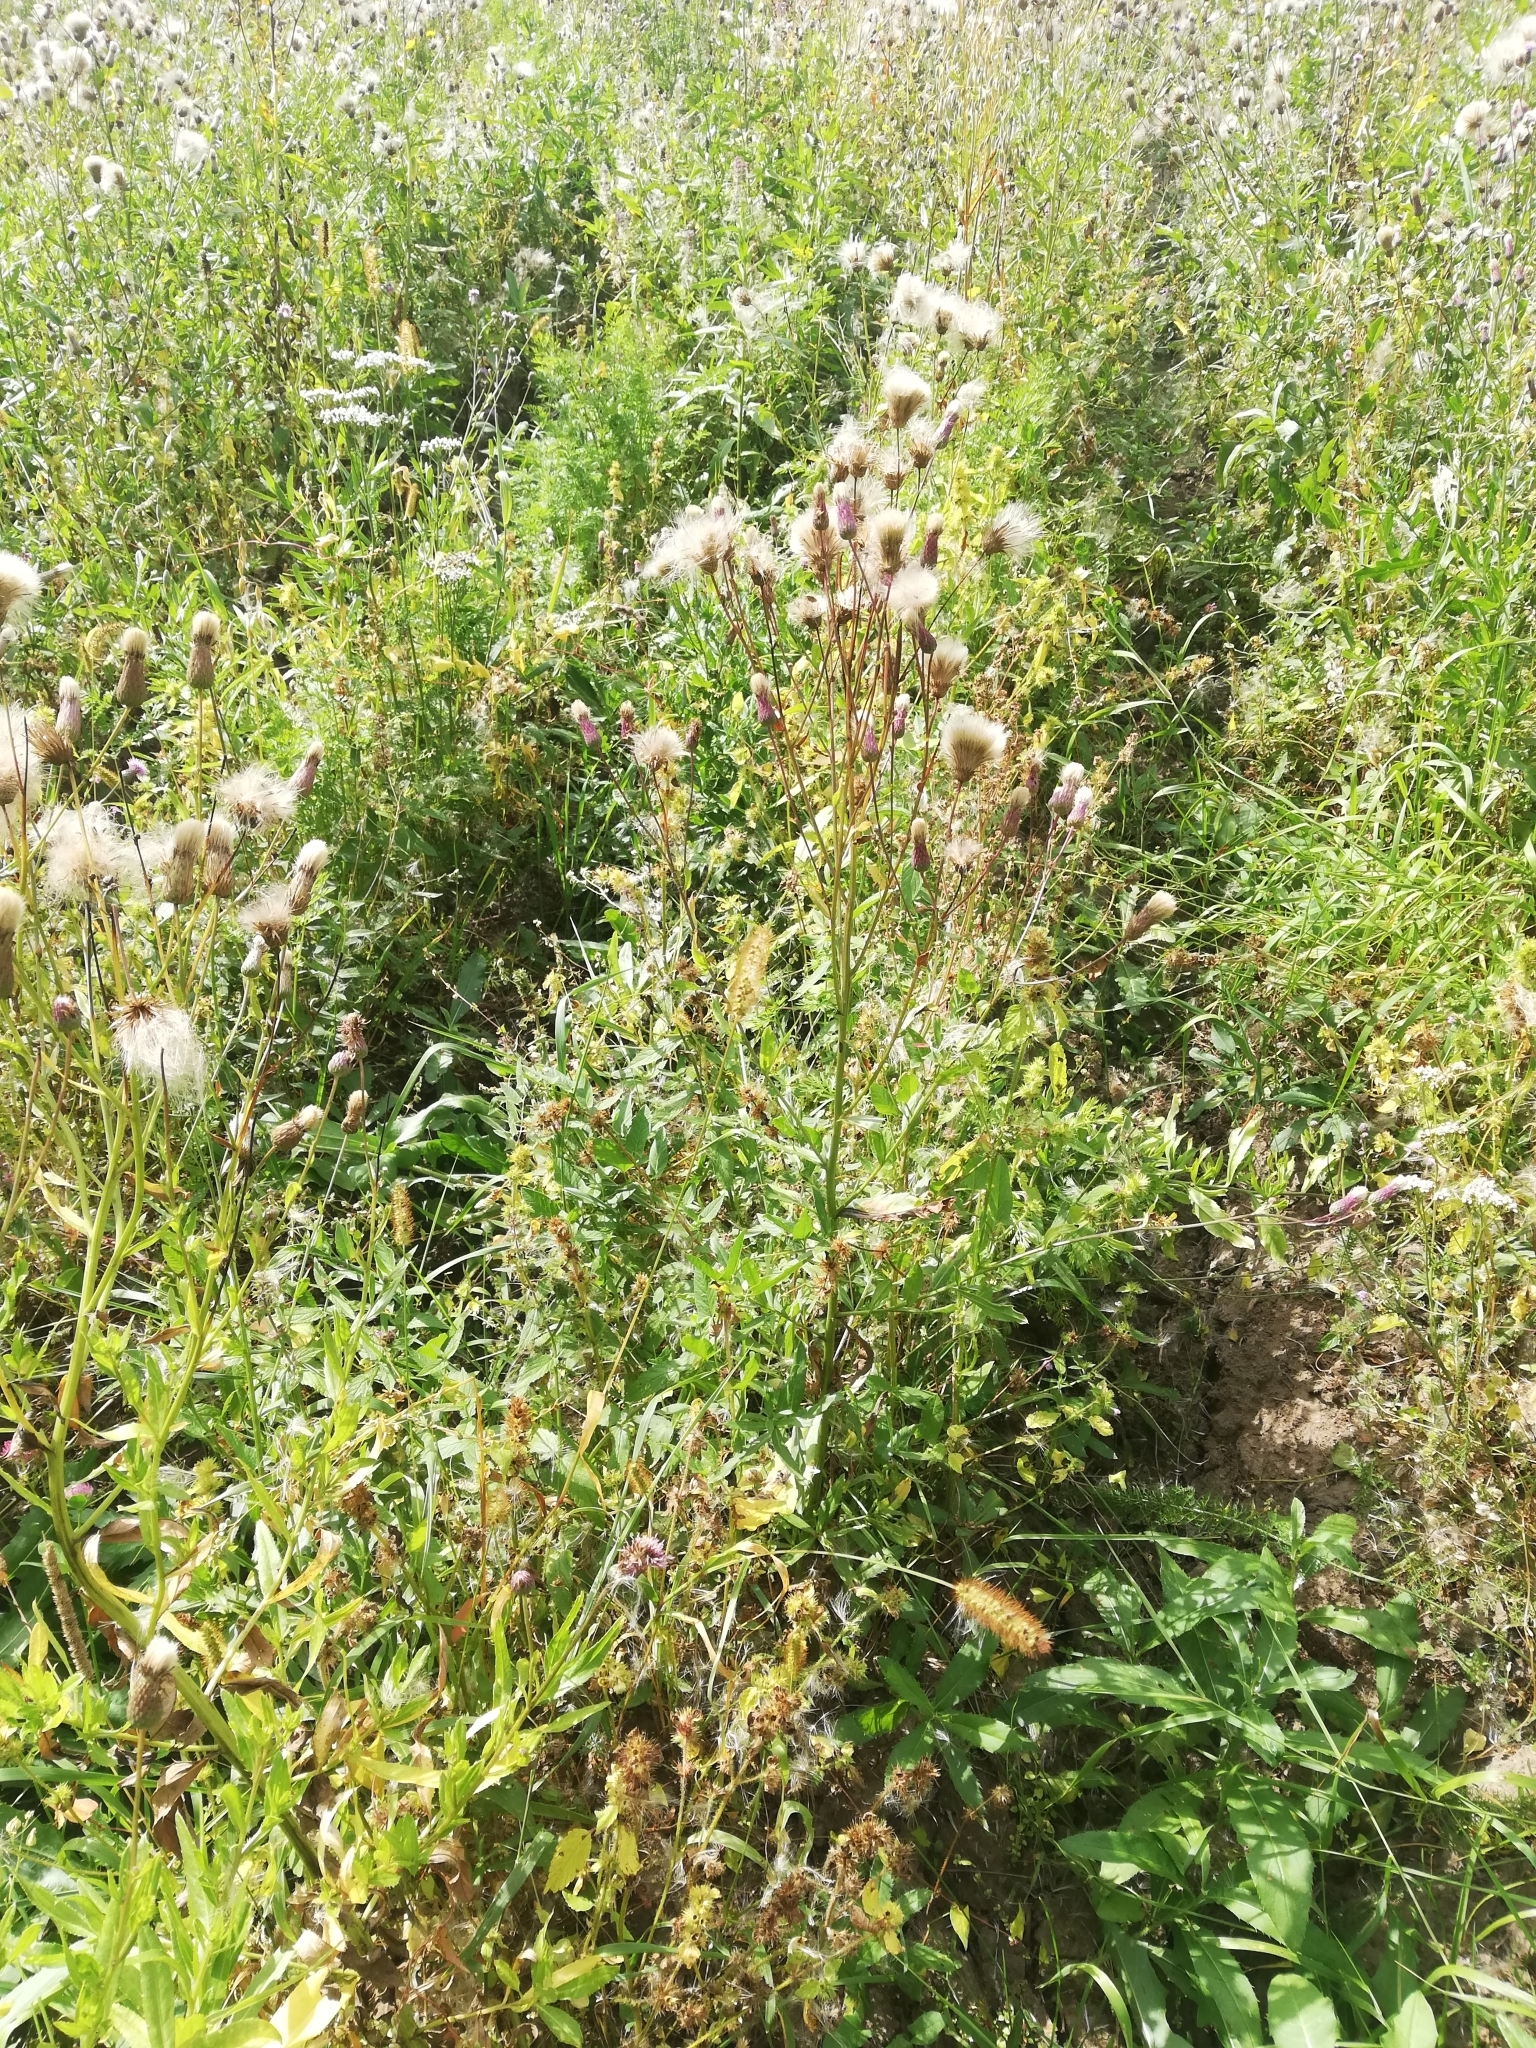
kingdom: Plantae
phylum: Tracheophyta
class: Magnoliopsida
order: Asterales
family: Asteraceae
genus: Cirsium
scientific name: Cirsium arvense
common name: Creeping thistle
